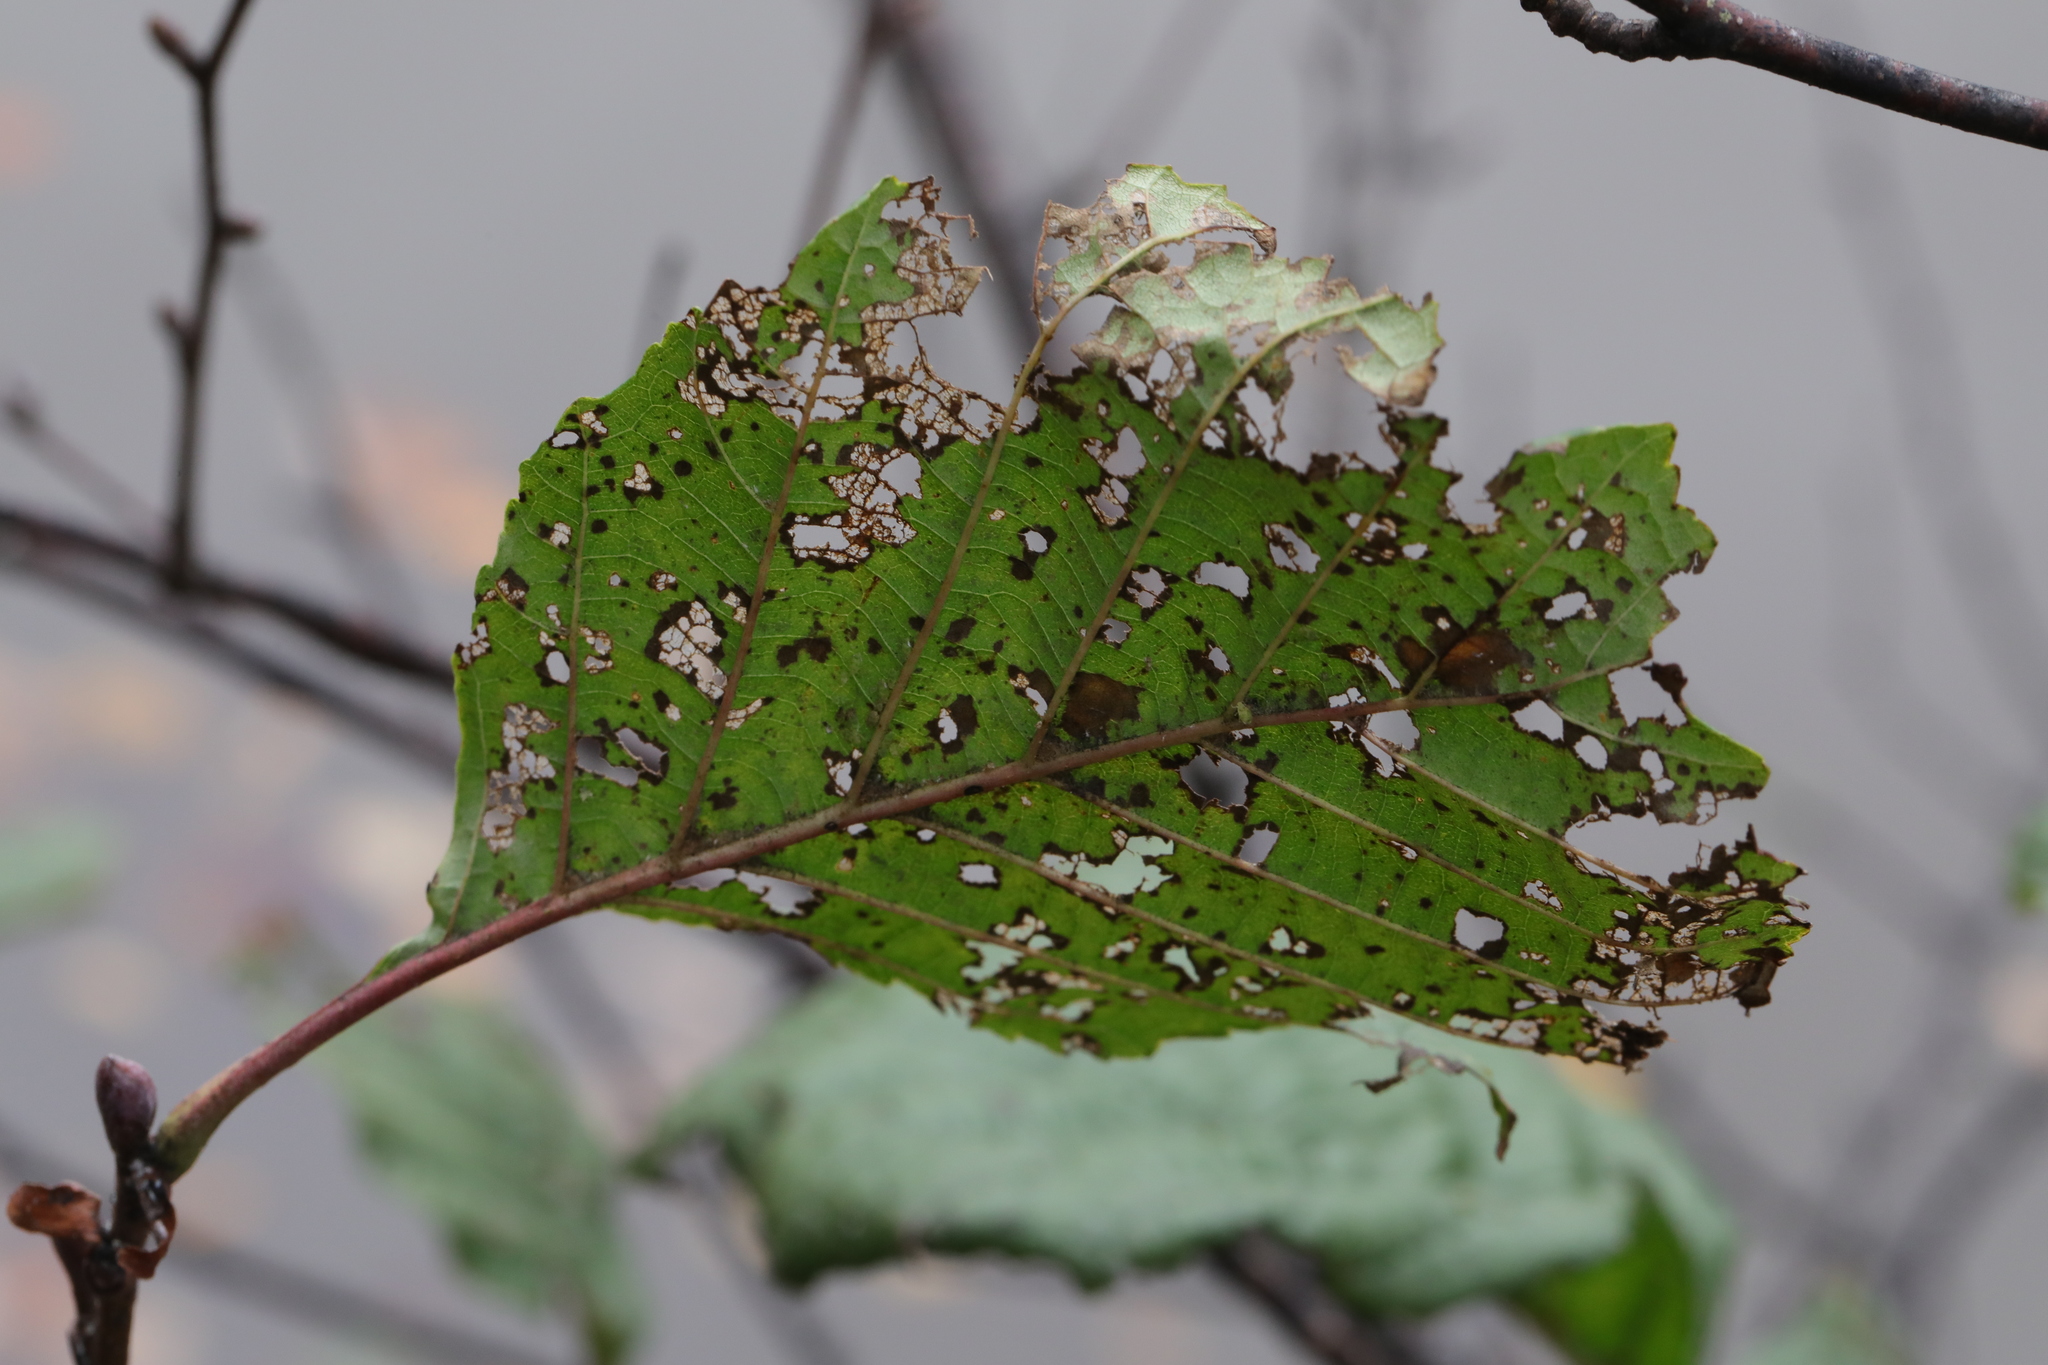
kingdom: Animalia
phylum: Arthropoda
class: Insecta
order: Coleoptera
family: Chrysomelidae
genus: Agelastica
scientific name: Agelastica alni
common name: Alder leaf beetle
